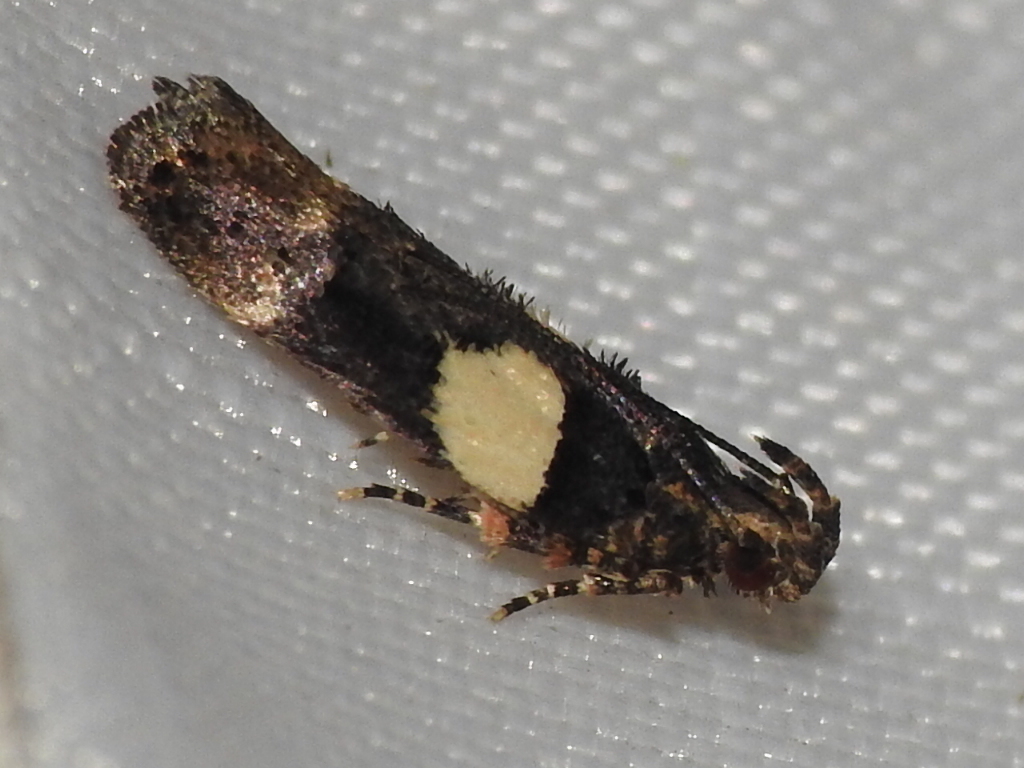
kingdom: Animalia
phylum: Arthropoda
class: Insecta
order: Lepidoptera
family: Gelechiidae
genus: Friseria
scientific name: Friseria acaciella
